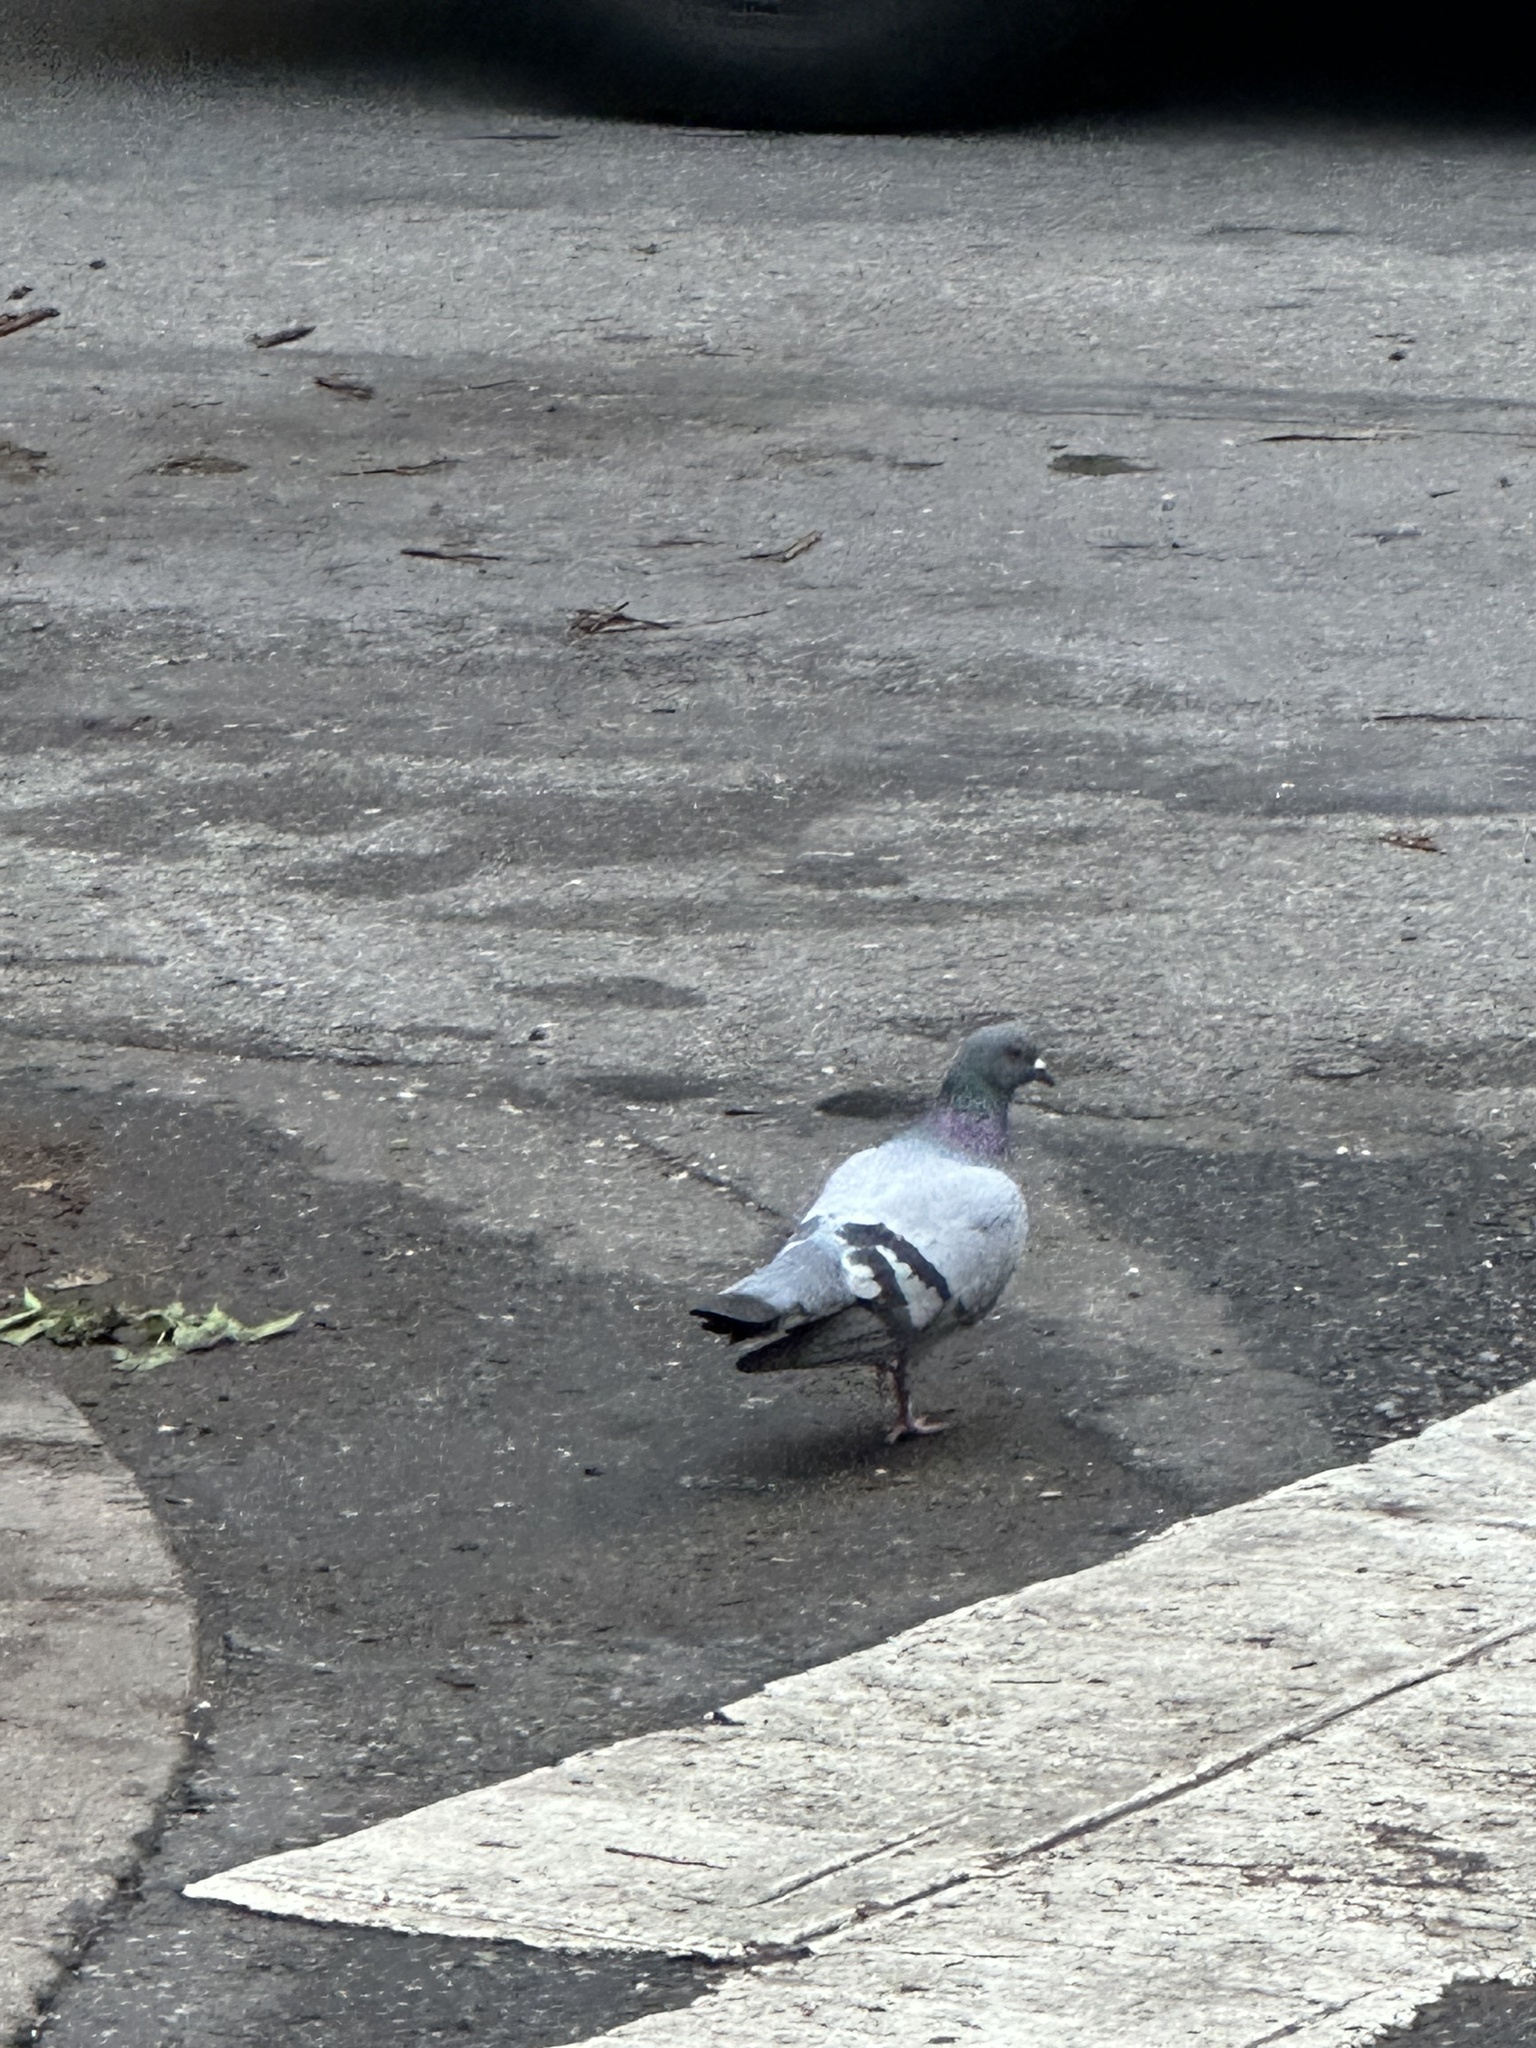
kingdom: Animalia
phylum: Chordata
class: Aves
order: Columbiformes
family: Columbidae
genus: Columba
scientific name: Columba livia
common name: Rock pigeon
